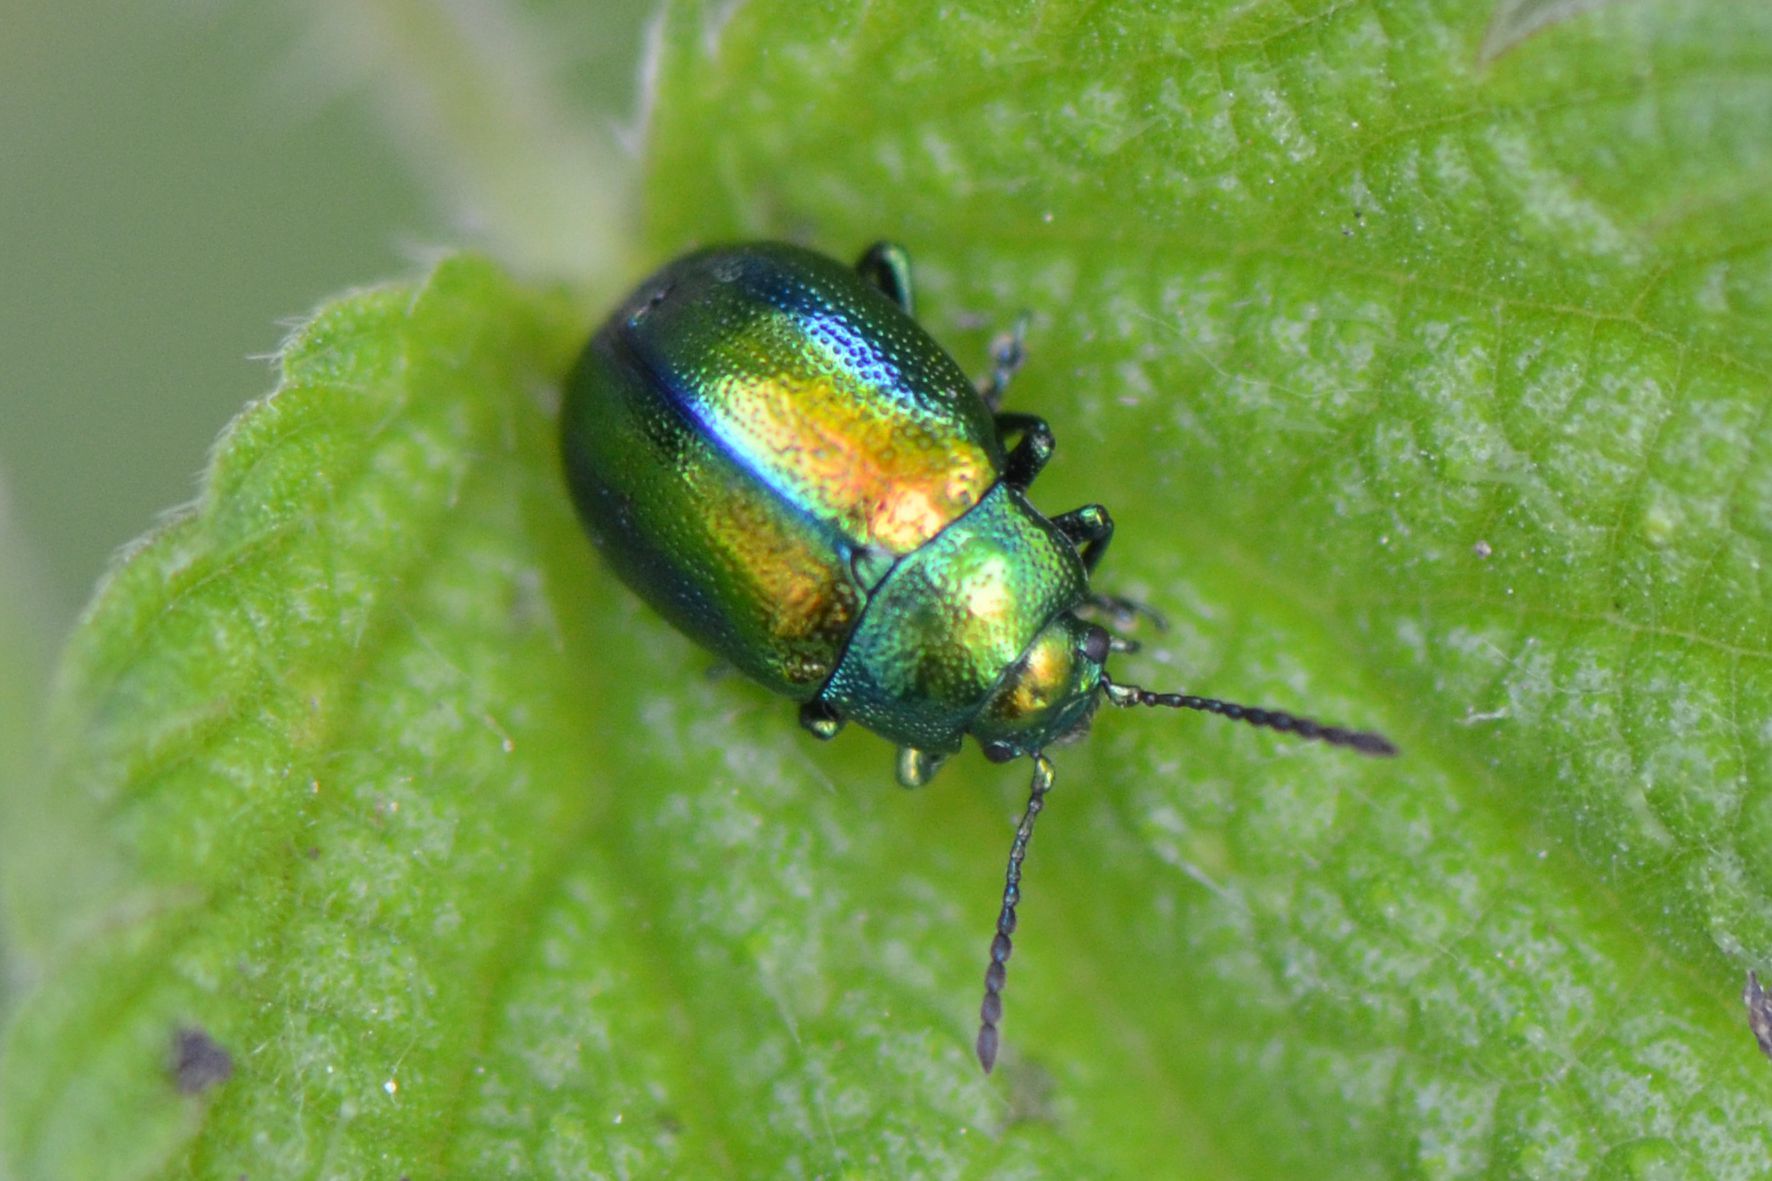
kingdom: Animalia
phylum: Arthropoda
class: Insecta
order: Coleoptera
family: Chrysomelidae
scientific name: Chrysomelidae
